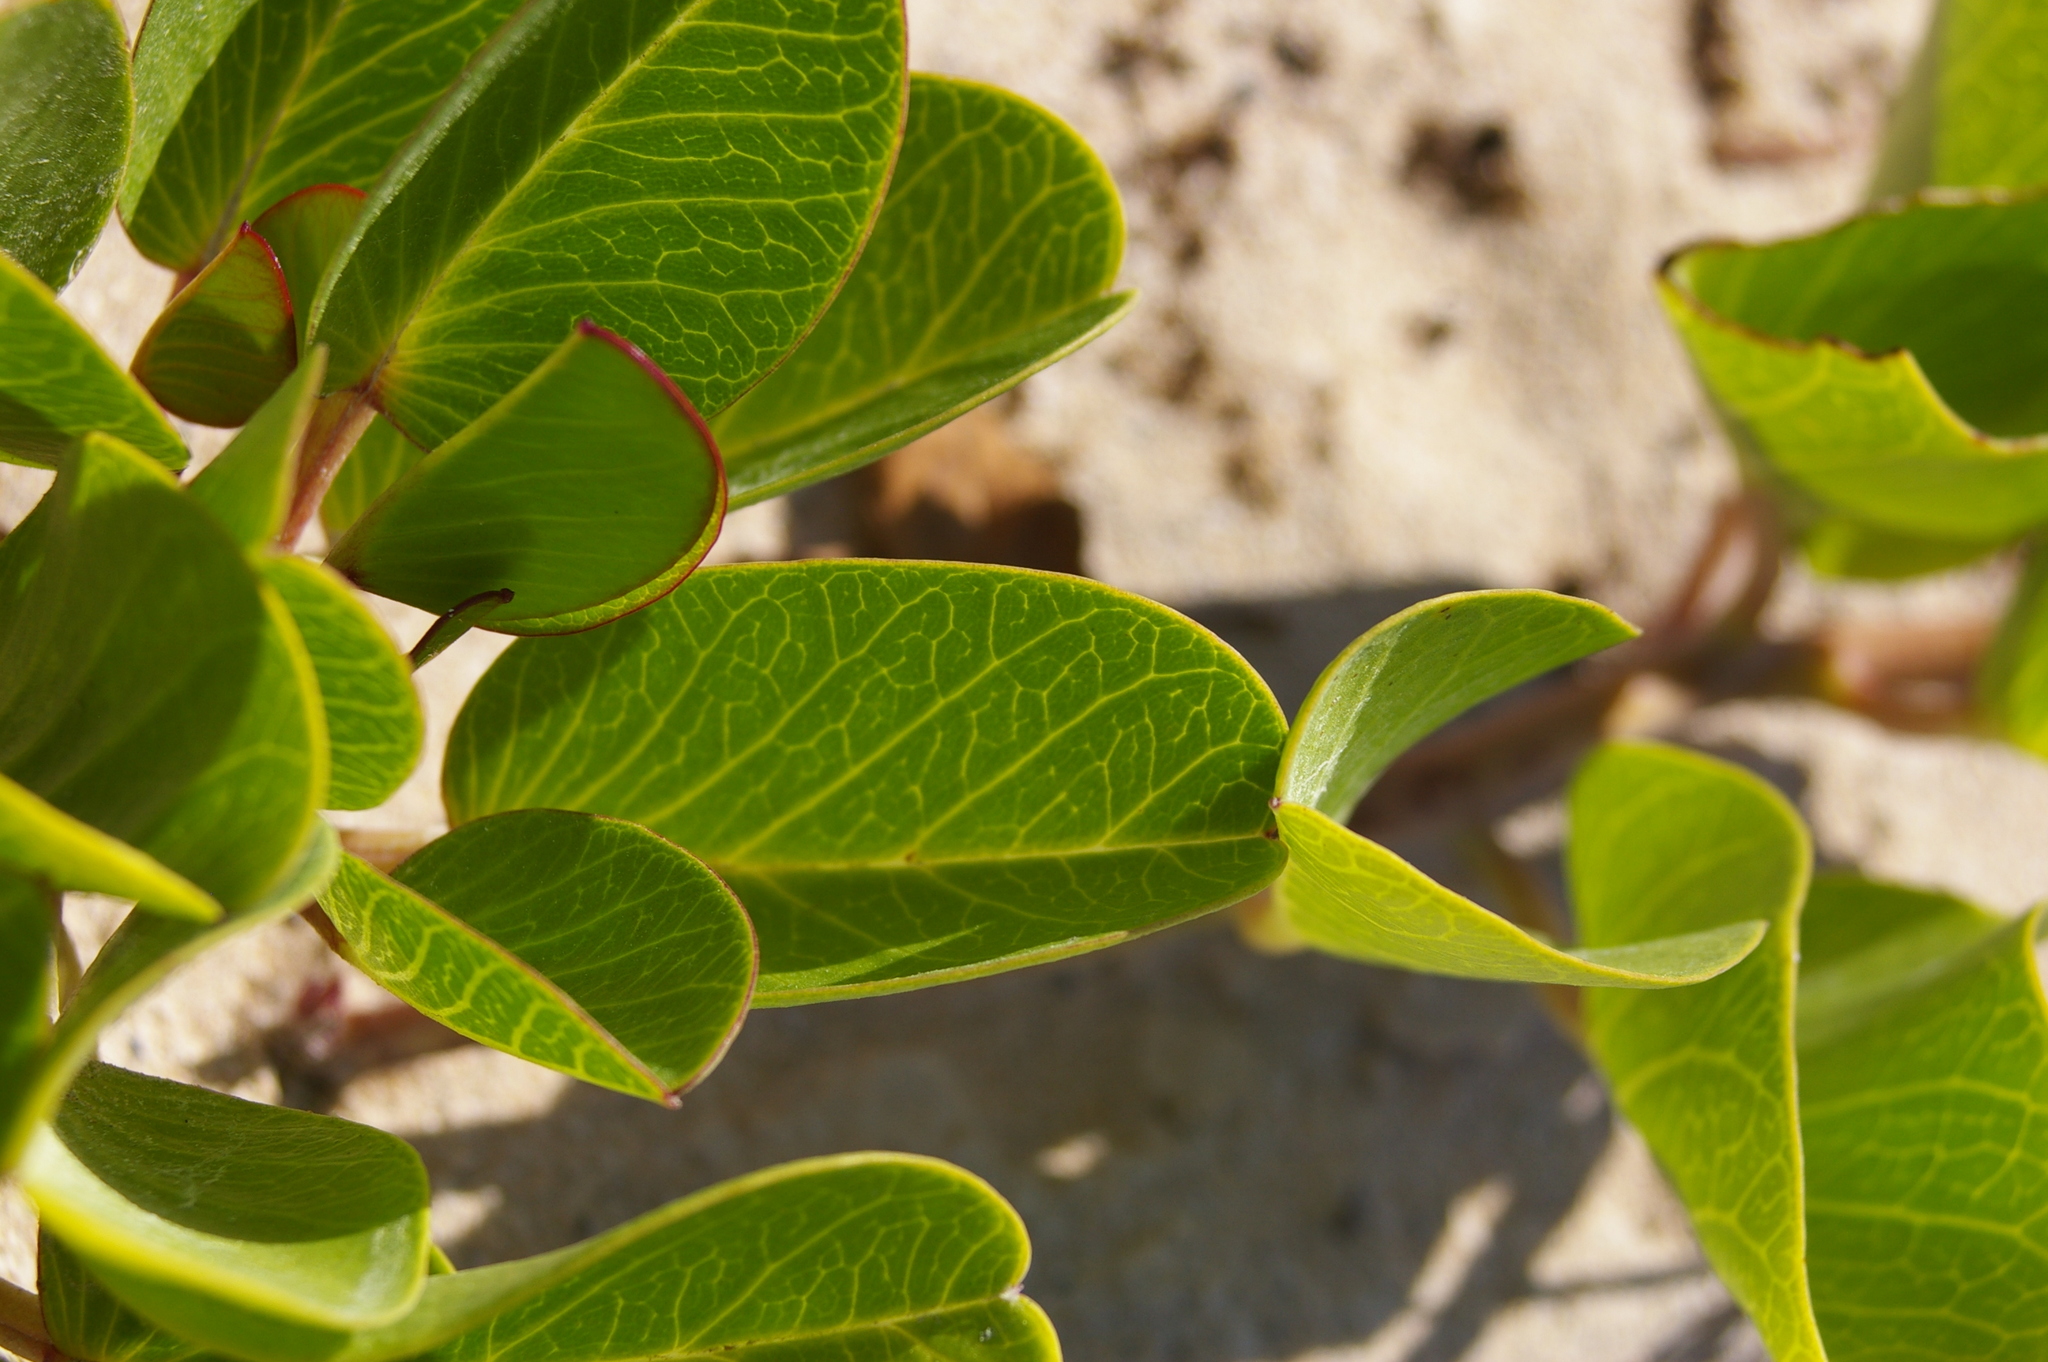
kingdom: Plantae
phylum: Tracheophyta
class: Magnoliopsida
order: Solanales
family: Convolvulaceae
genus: Ipomoea
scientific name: Ipomoea pes-caprae
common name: Beach morning glory
